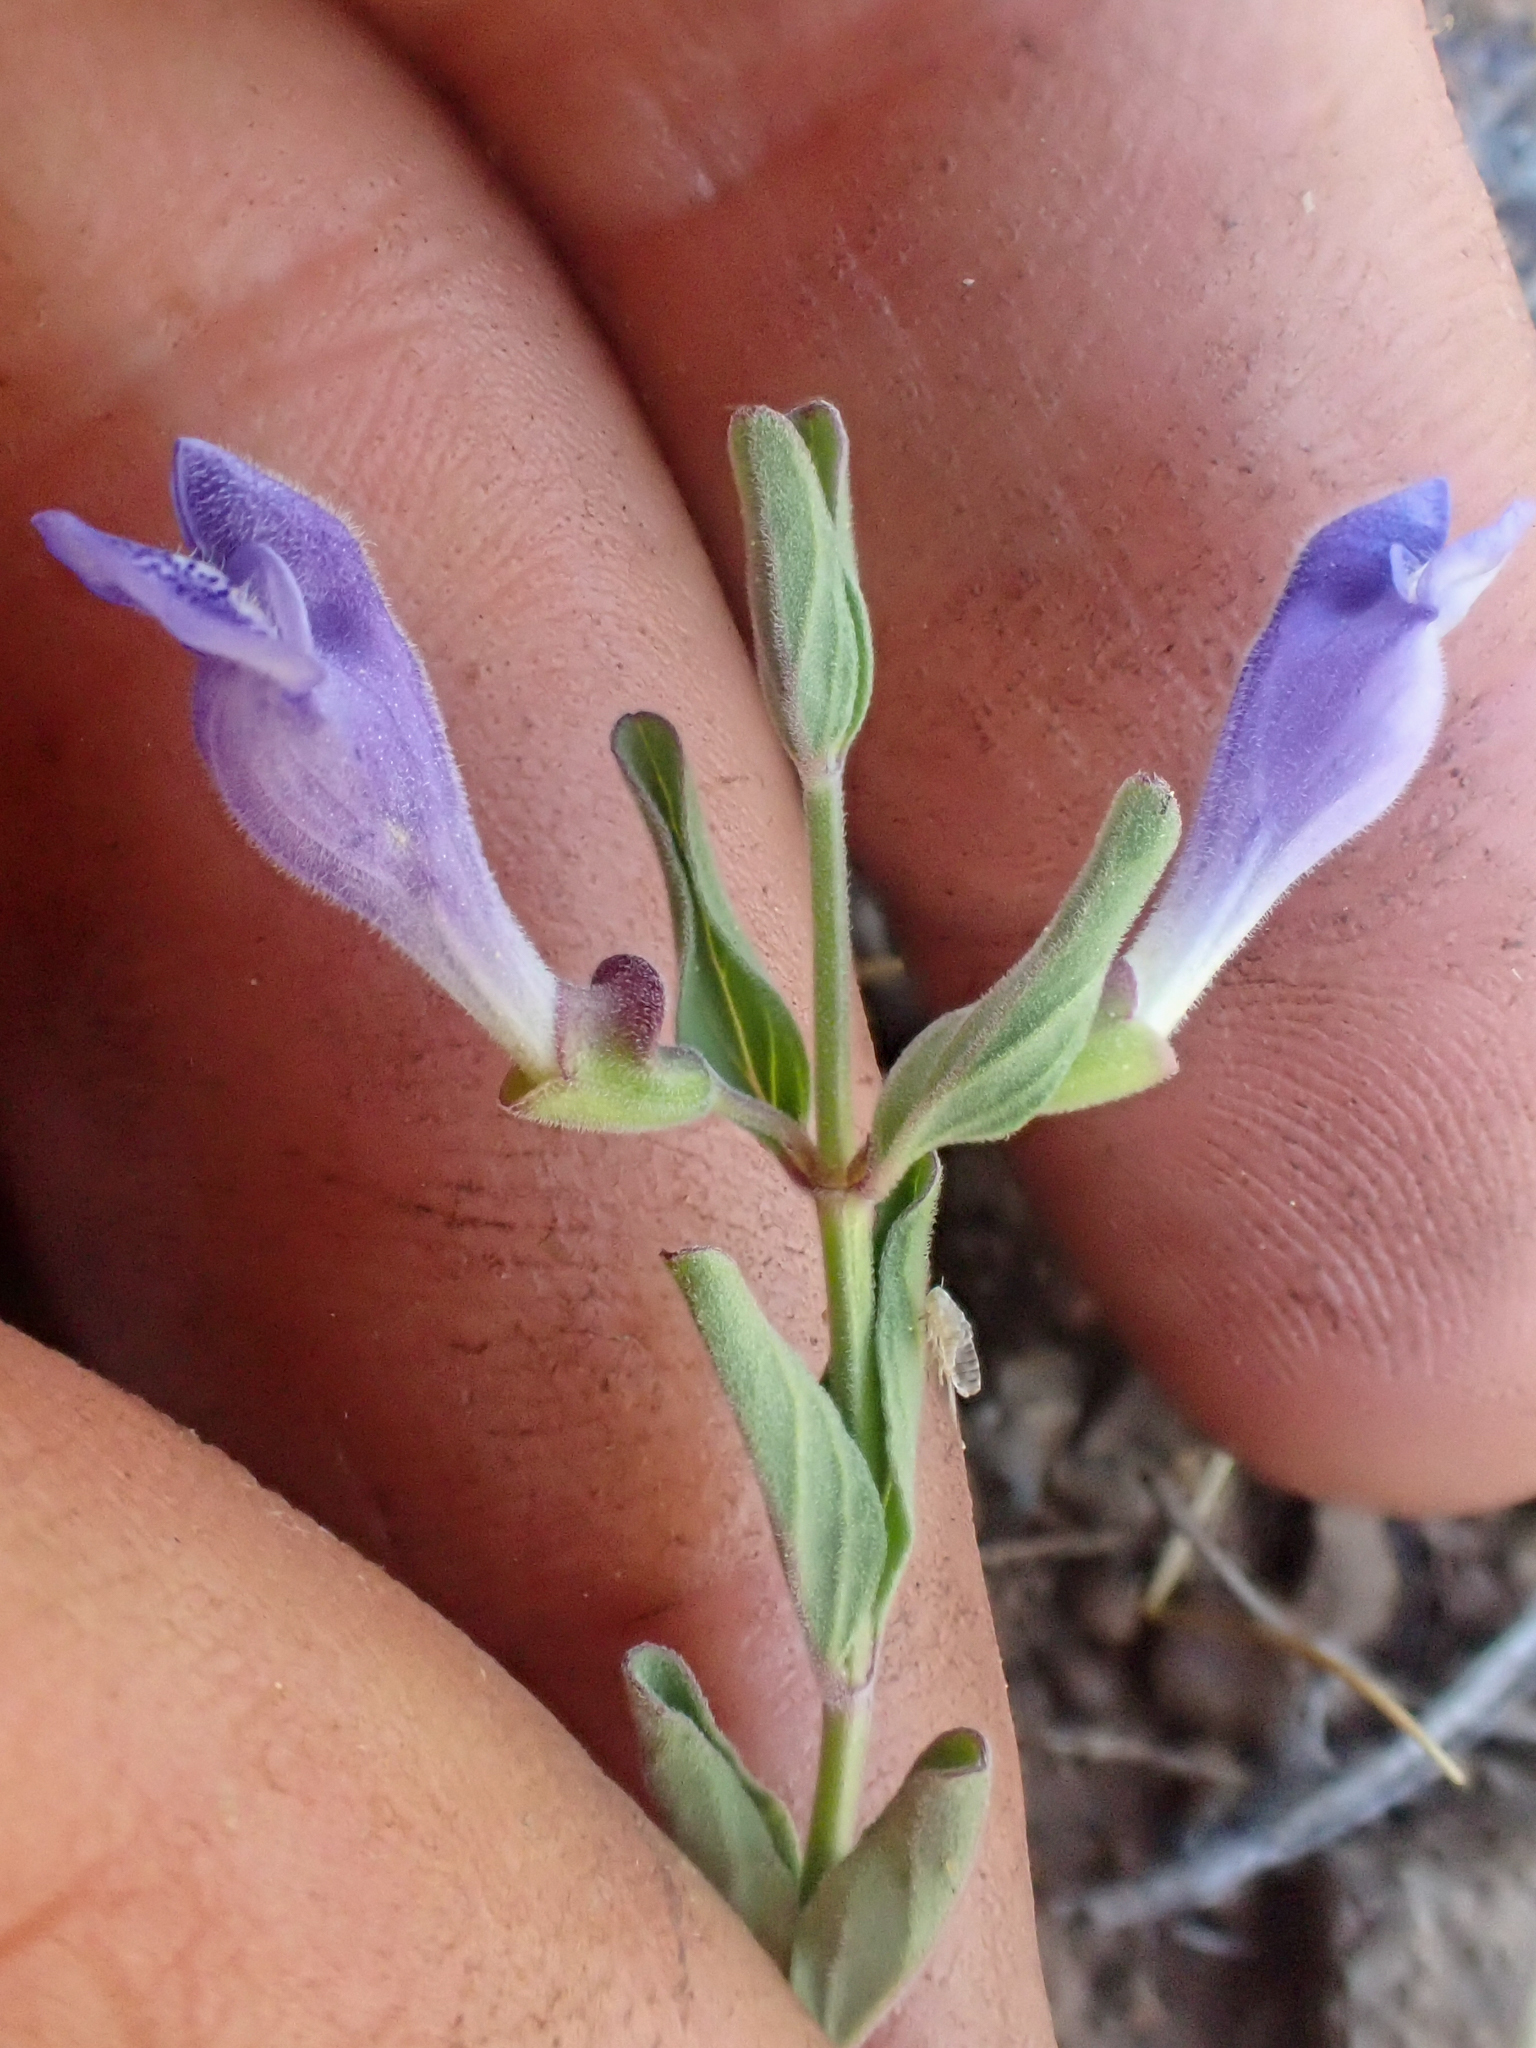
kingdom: Plantae
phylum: Tracheophyta
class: Magnoliopsida
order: Lamiales
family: Lamiaceae
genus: Scutellaria
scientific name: Scutellaria antirrhinoides
